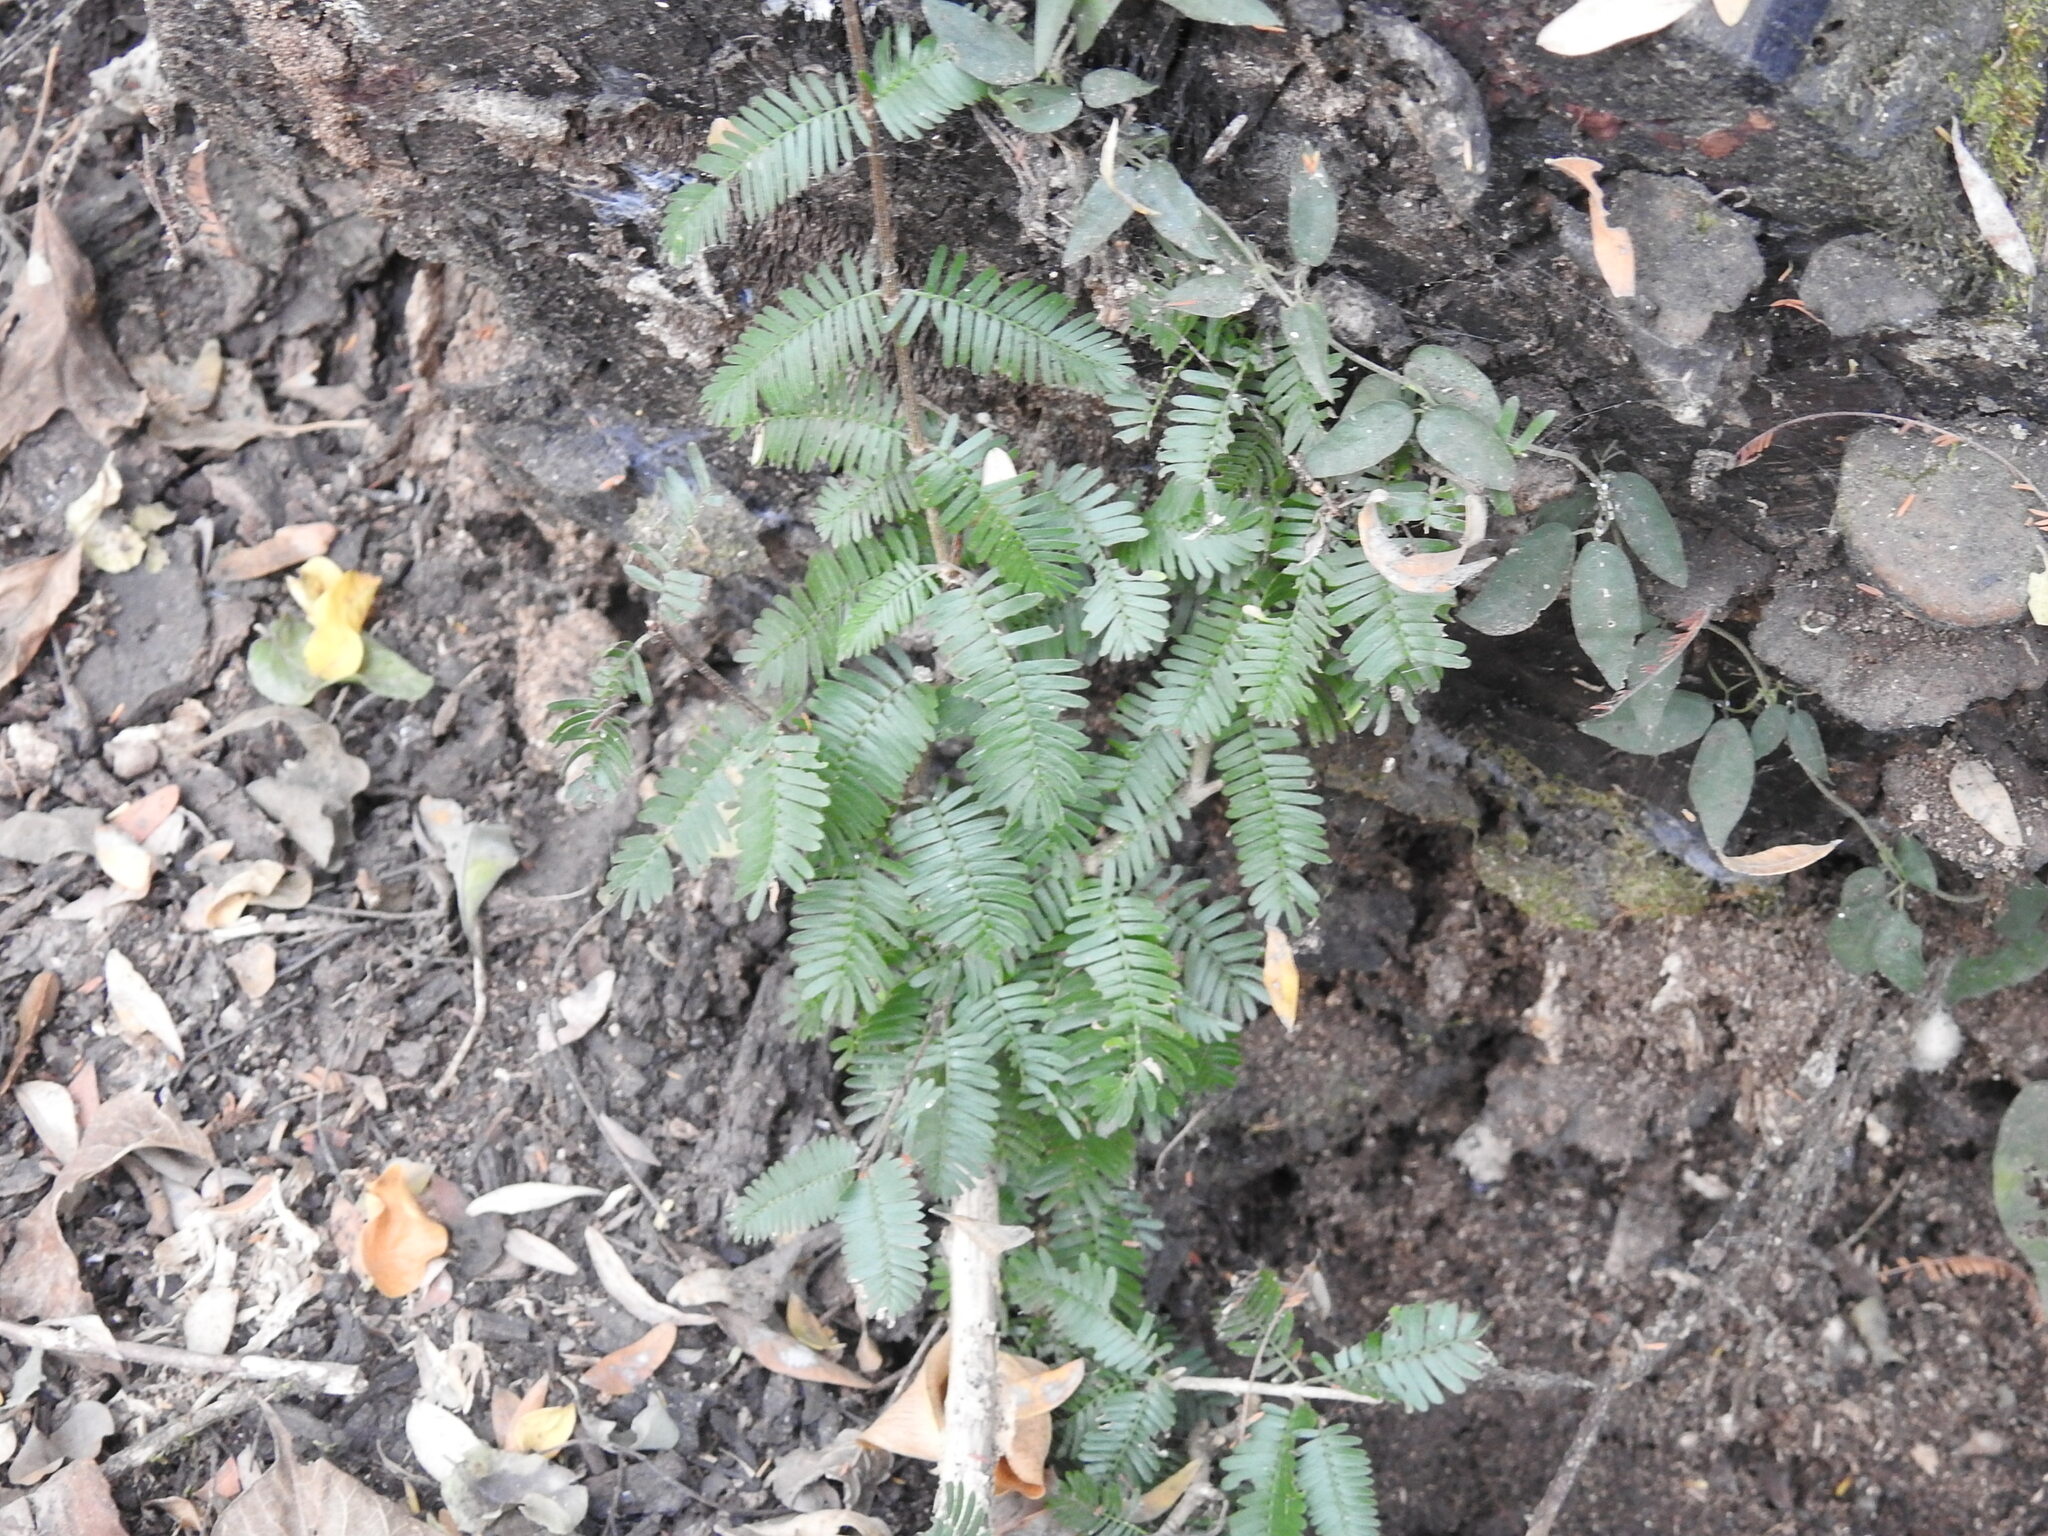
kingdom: Plantae
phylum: Tracheophyta
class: Magnoliopsida
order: Zygophyllales
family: Zygophyllaceae
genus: Porlieria
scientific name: Porlieria microphylla
